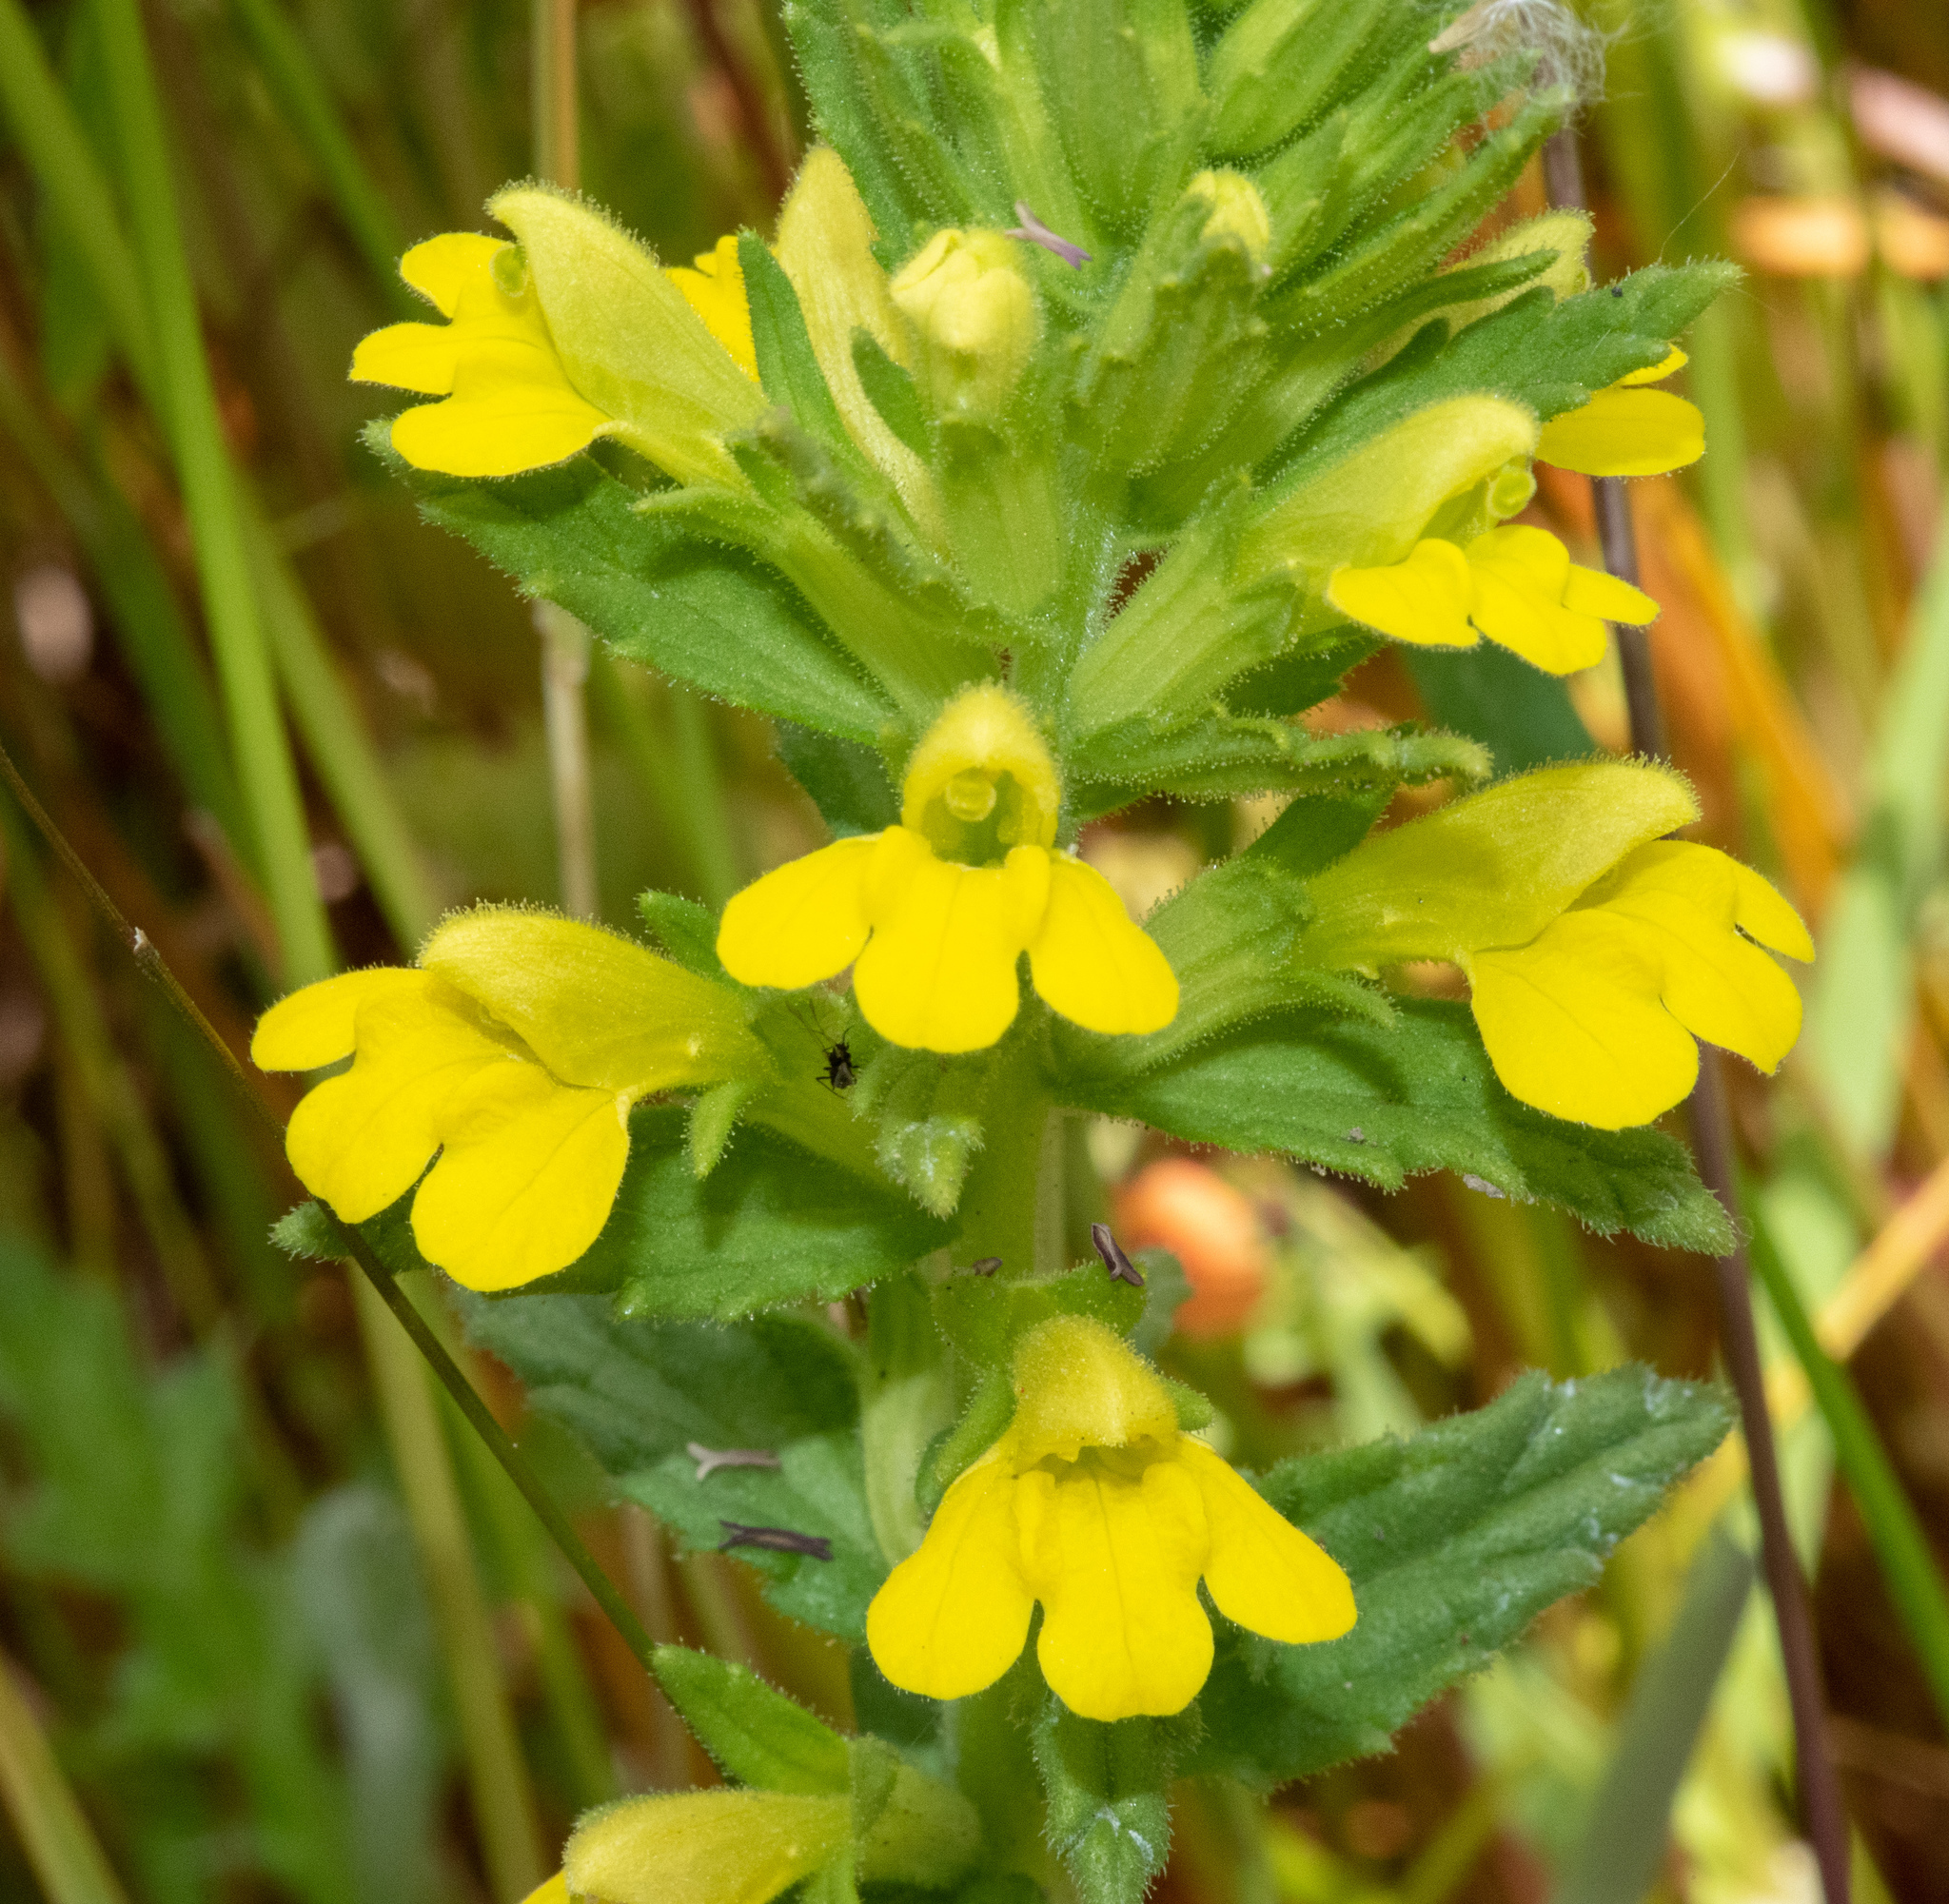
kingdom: Plantae
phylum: Tracheophyta
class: Magnoliopsida
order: Lamiales
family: Orobanchaceae
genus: Bellardia
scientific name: Bellardia viscosa
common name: Sticky parentucellia
